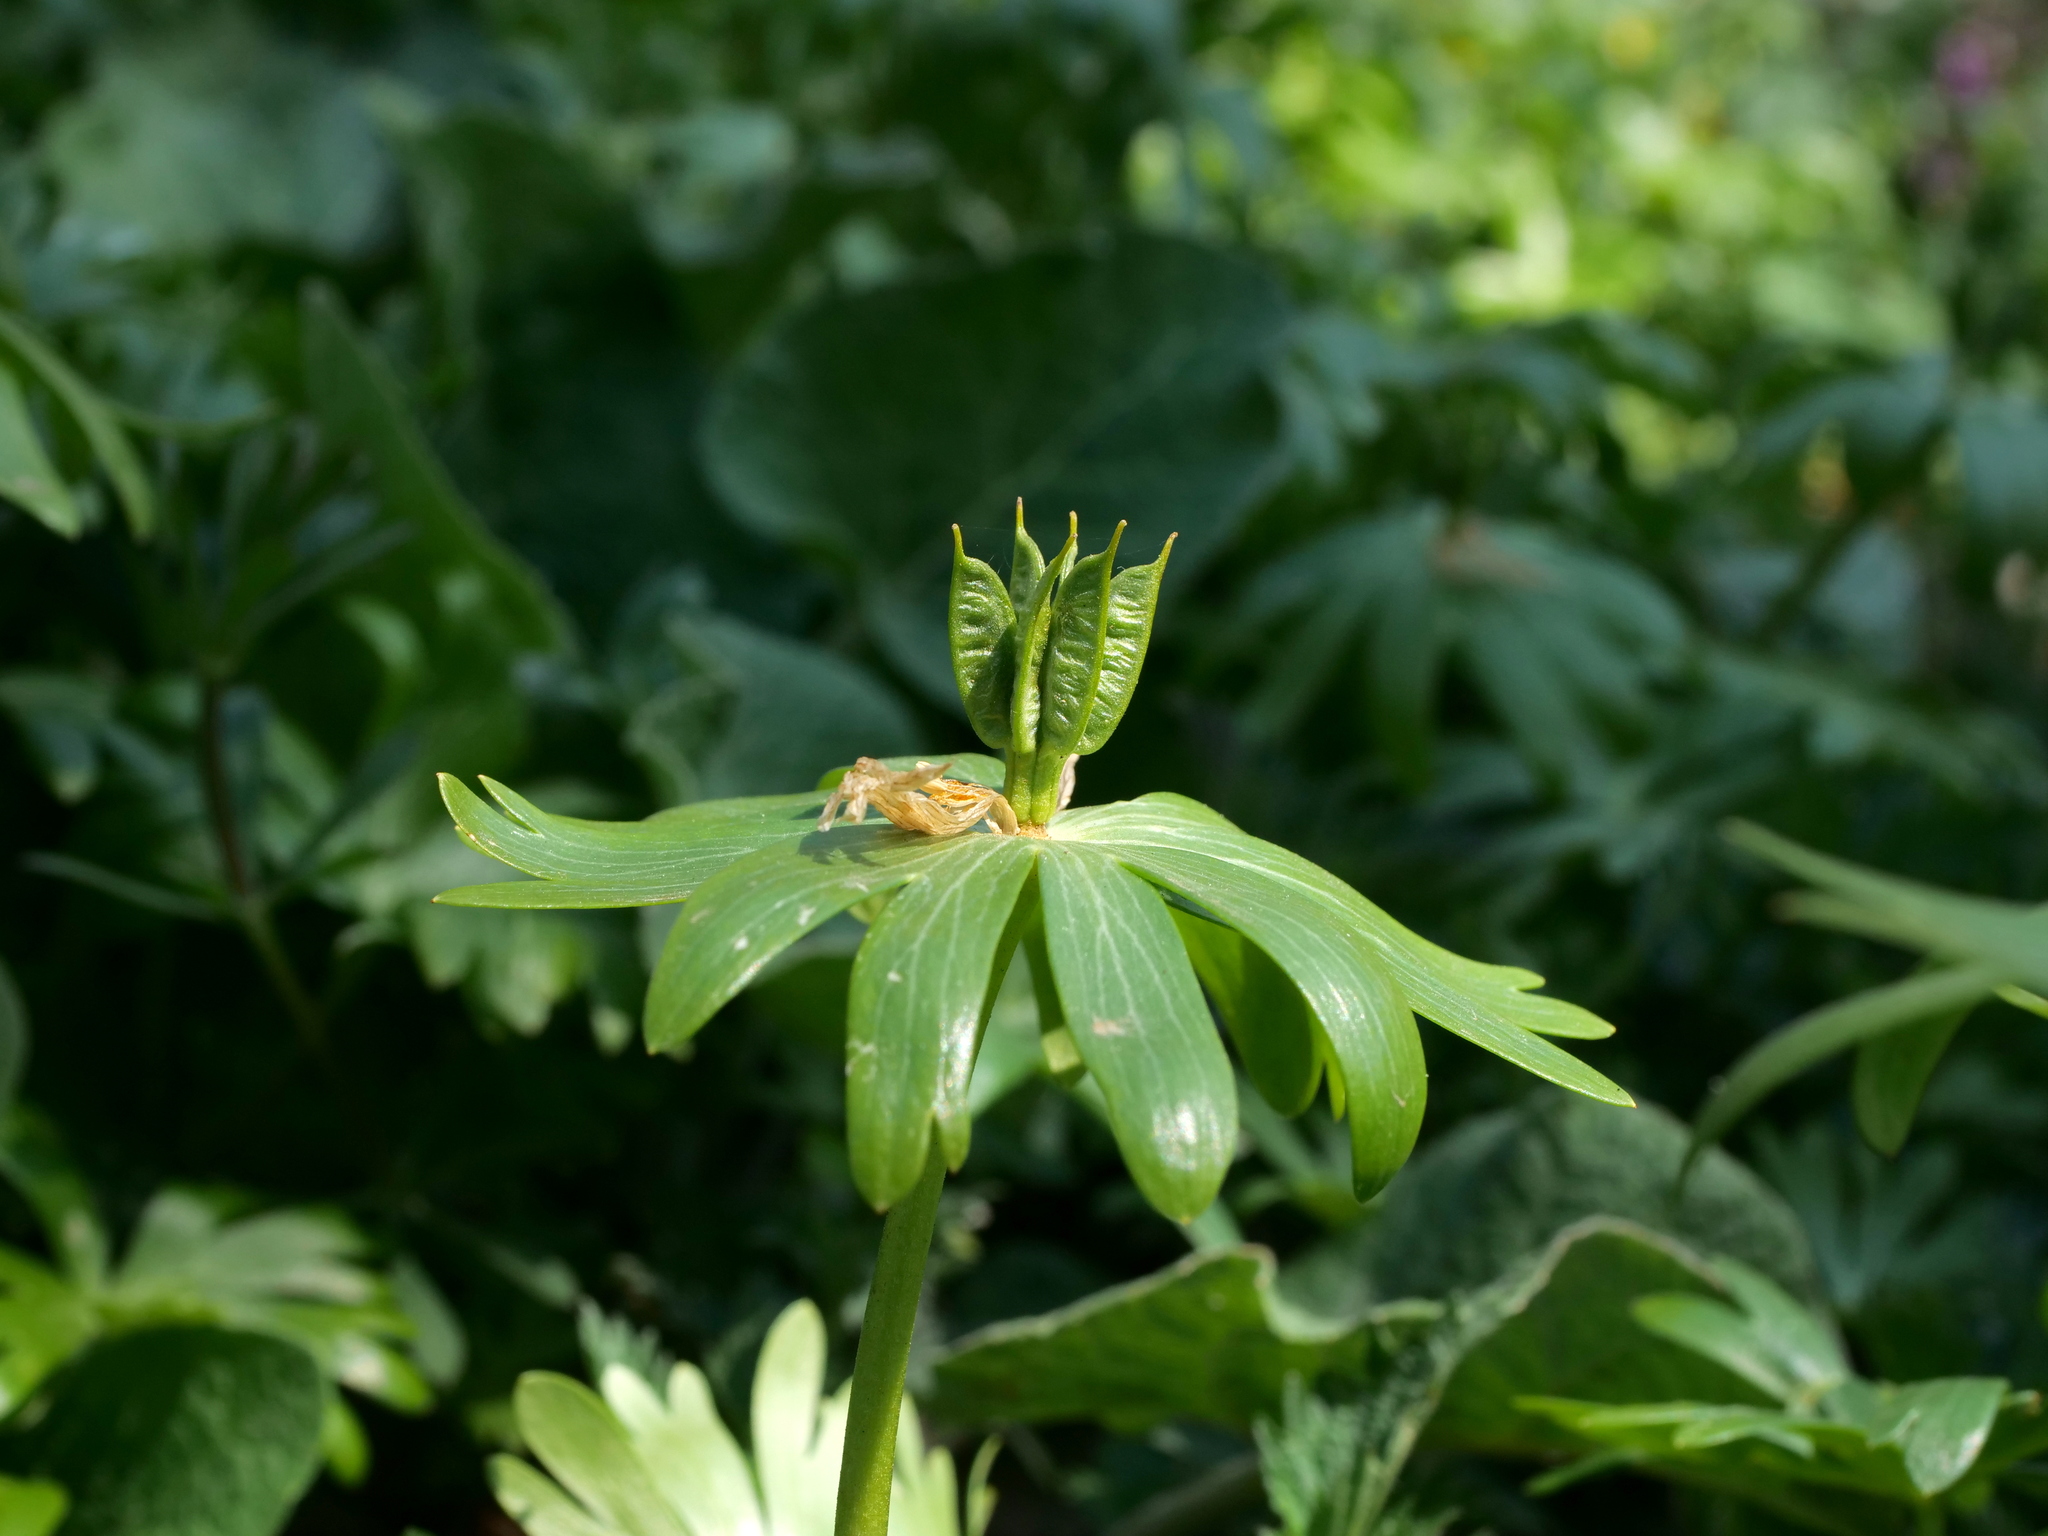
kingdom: Plantae
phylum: Tracheophyta
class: Magnoliopsida
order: Ranunculales
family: Ranunculaceae
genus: Eranthis
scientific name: Eranthis hyemalis
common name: Winter aconite
